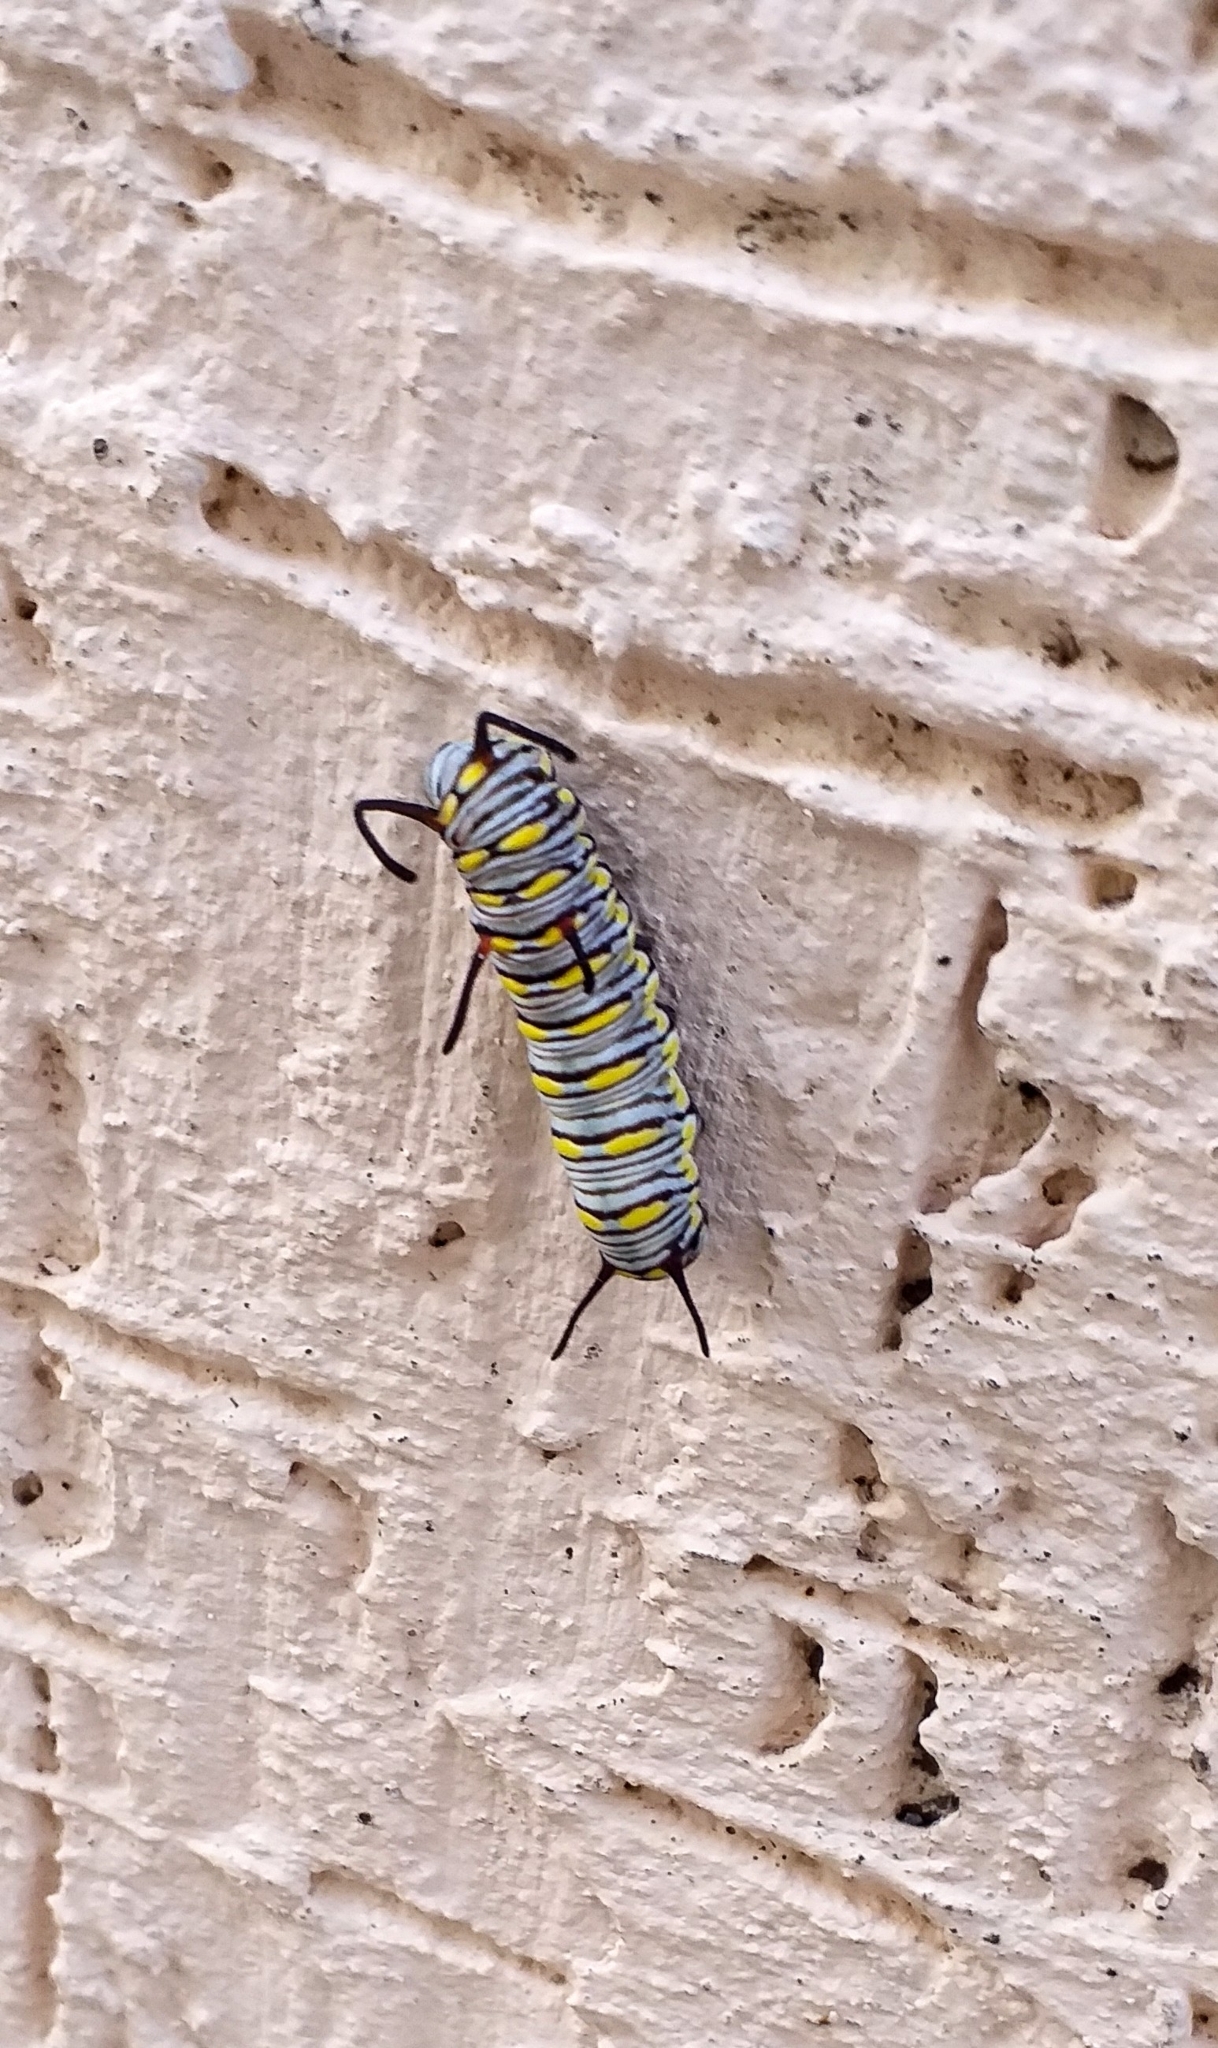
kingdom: Animalia
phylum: Arthropoda
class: Insecta
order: Lepidoptera
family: Nymphalidae
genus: Danaus
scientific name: Danaus chrysippus
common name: Plain tiger
